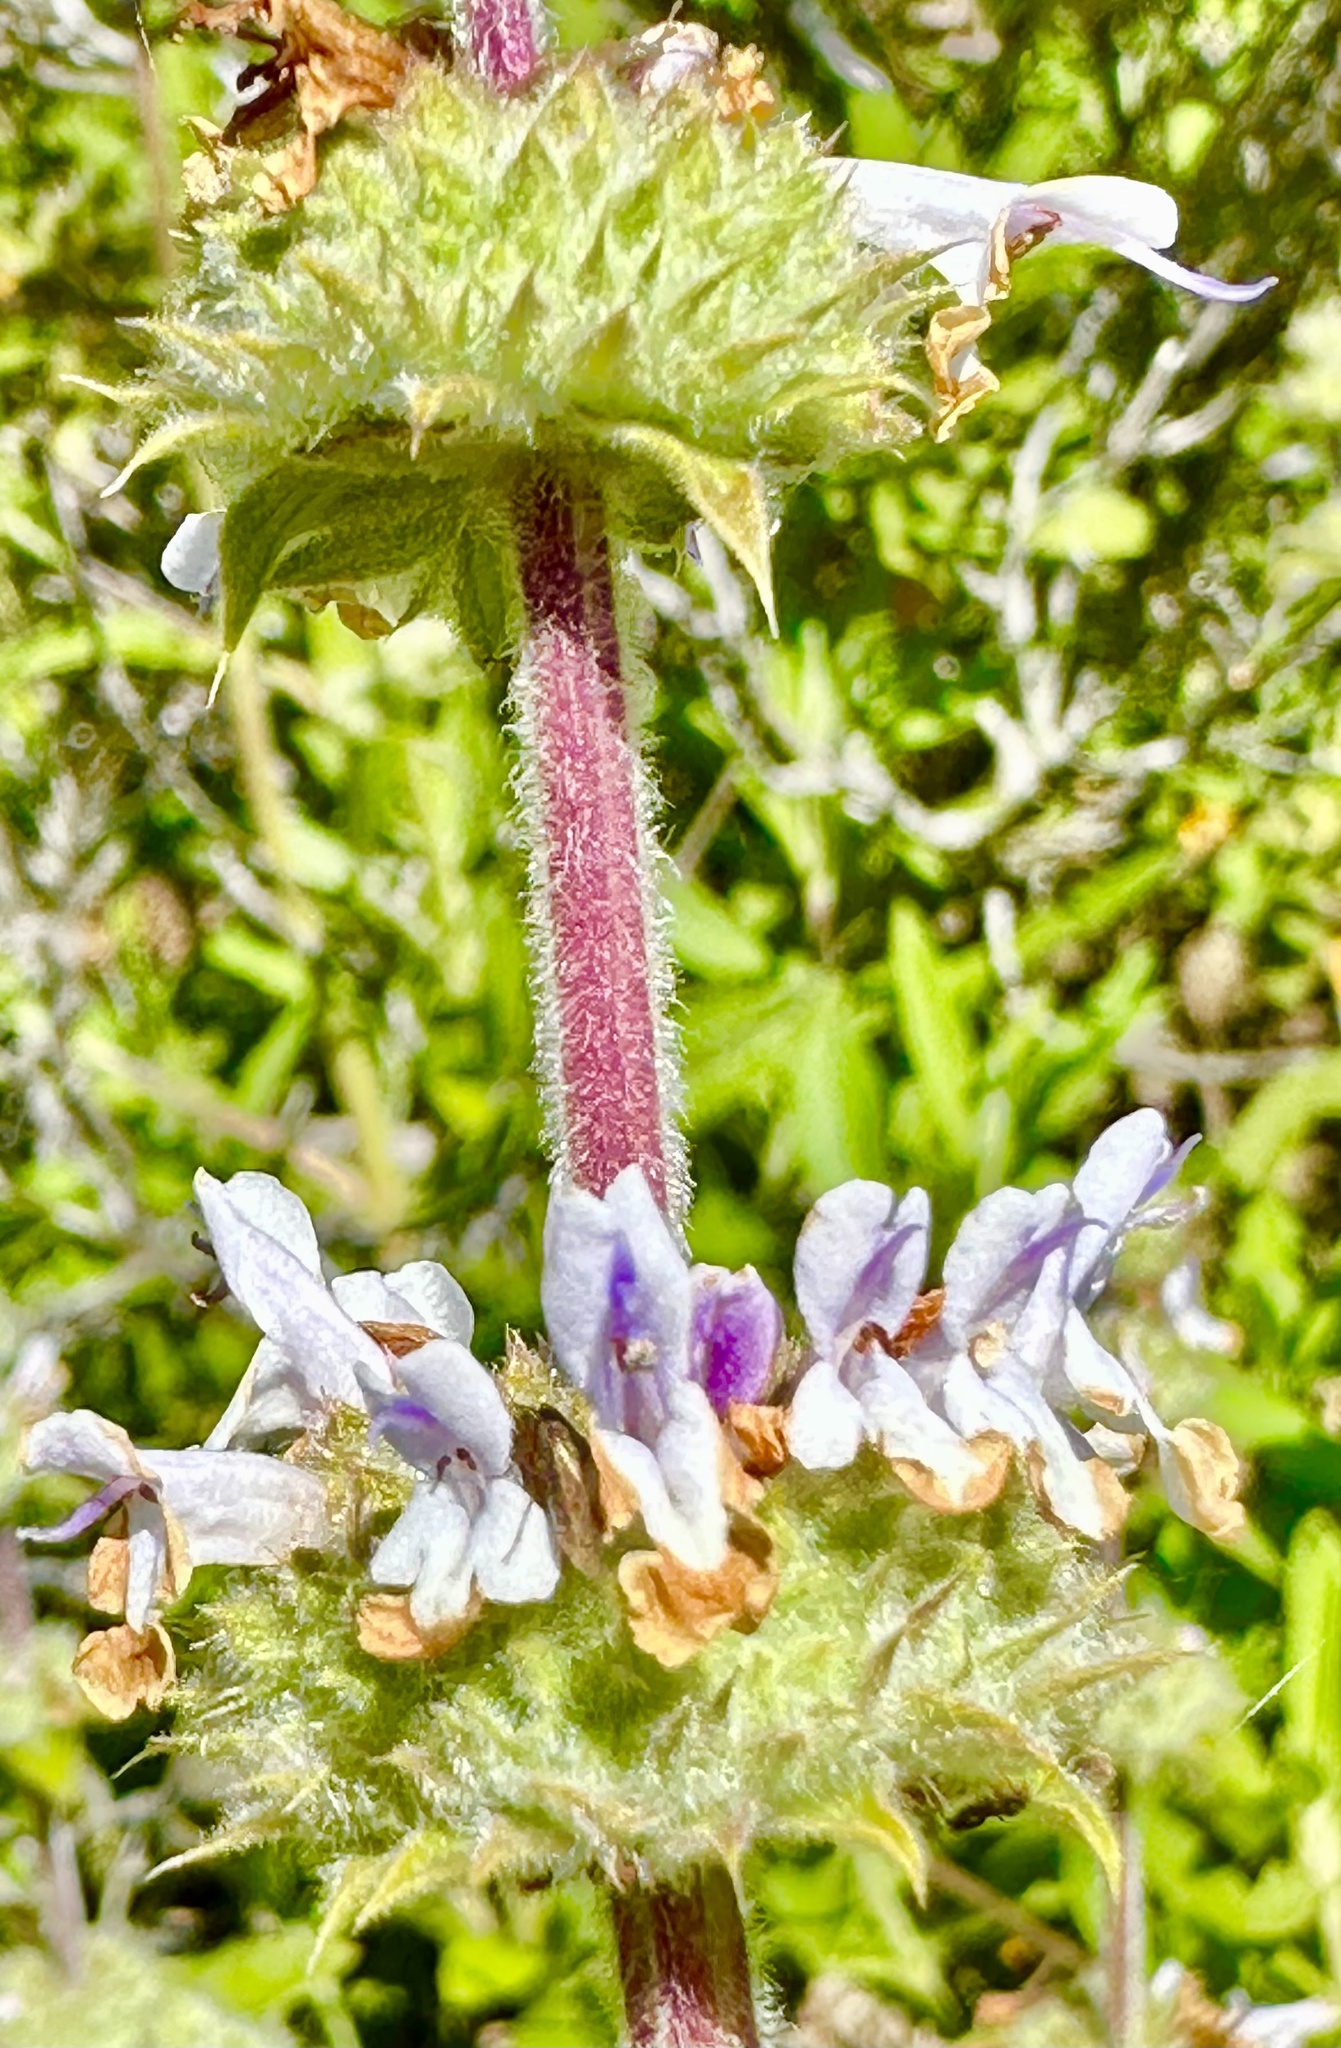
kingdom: Plantae
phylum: Tracheophyta
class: Magnoliopsida
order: Lamiales
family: Lamiaceae
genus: Salvia
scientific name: Salvia mellifera
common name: Black sage
